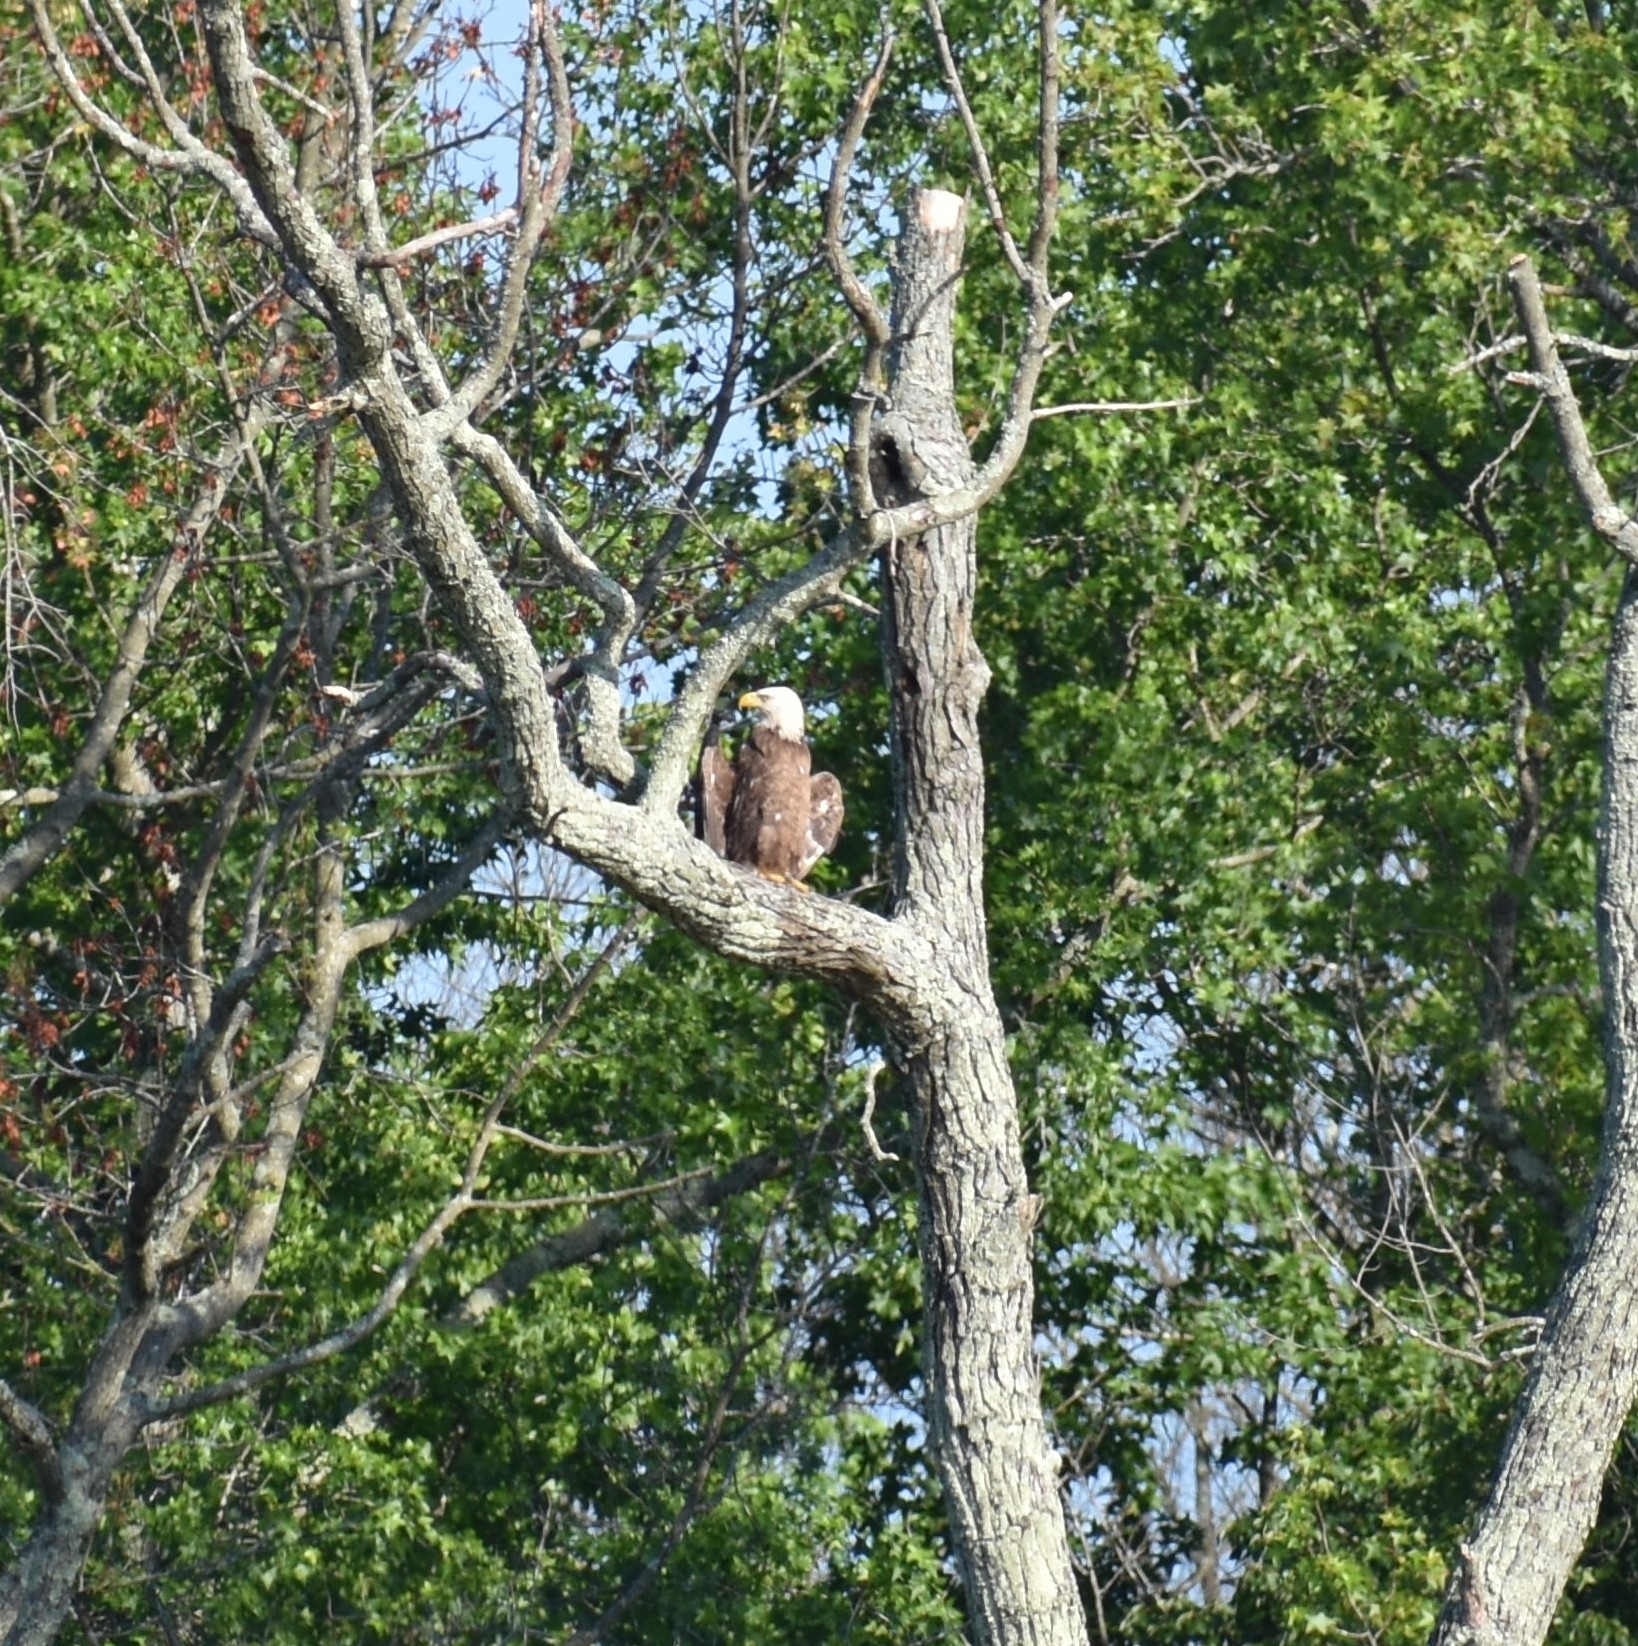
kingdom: Animalia
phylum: Chordata
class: Aves
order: Accipitriformes
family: Accipitridae
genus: Haliaeetus
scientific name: Haliaeetus leucocephalus
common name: Bald eagle
